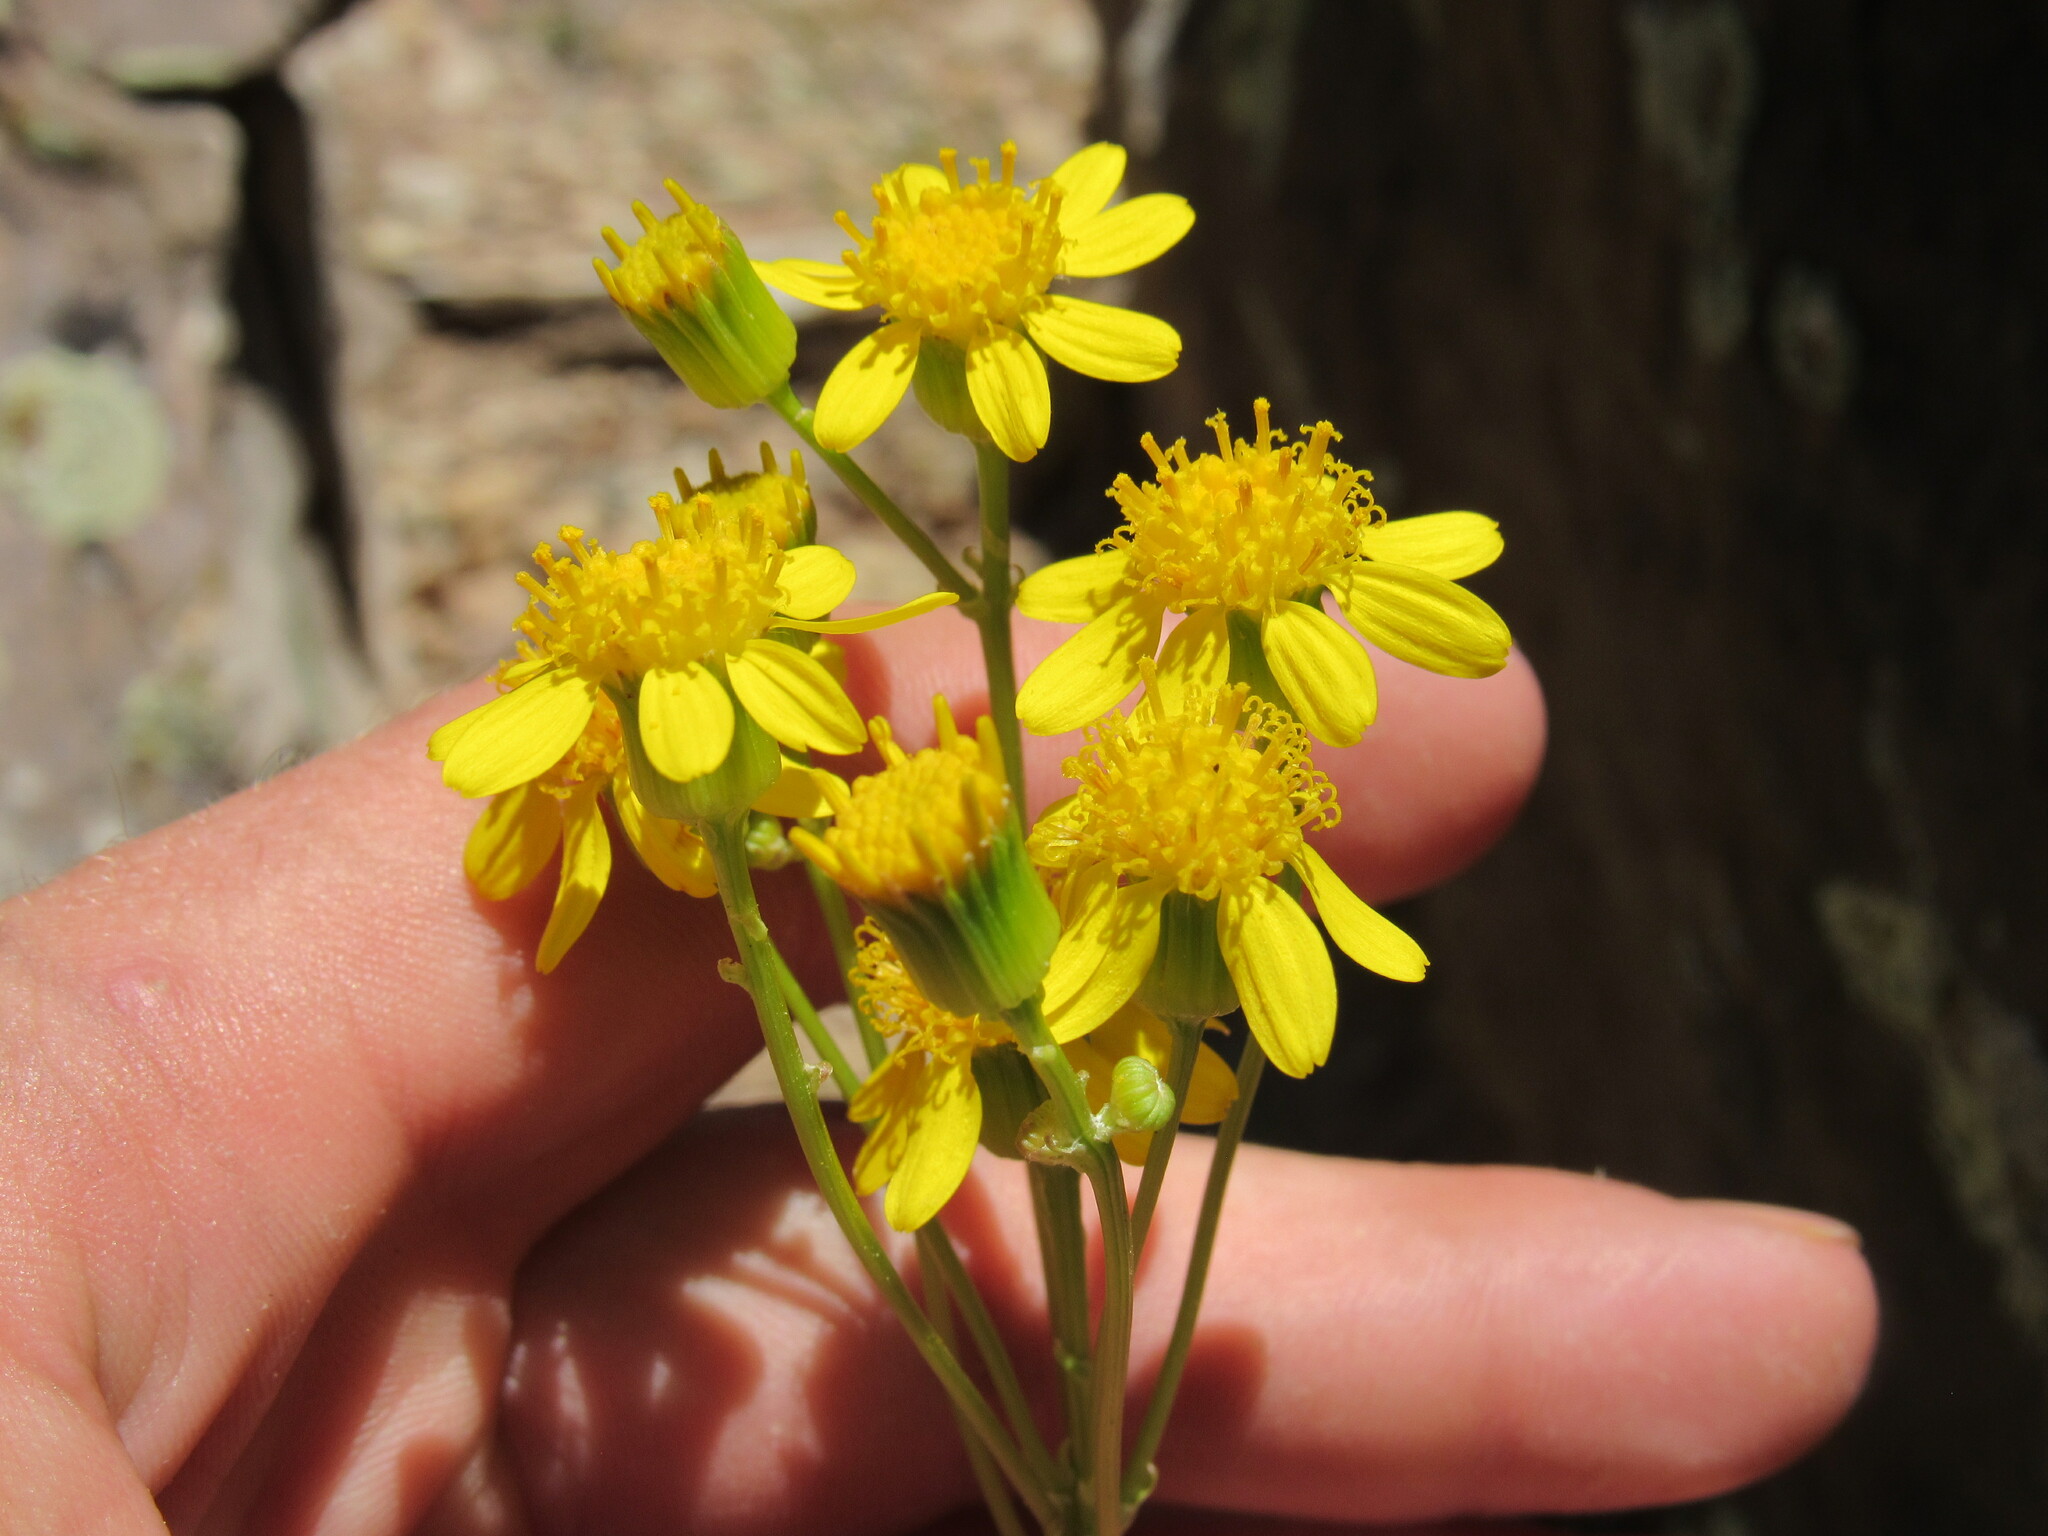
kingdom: Plantae
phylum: Tracheophyta
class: Magnoliopsida
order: Asterales
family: Asteraceae
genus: Packera
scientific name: Packera multilobata
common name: Lobe-leaf groundsel
